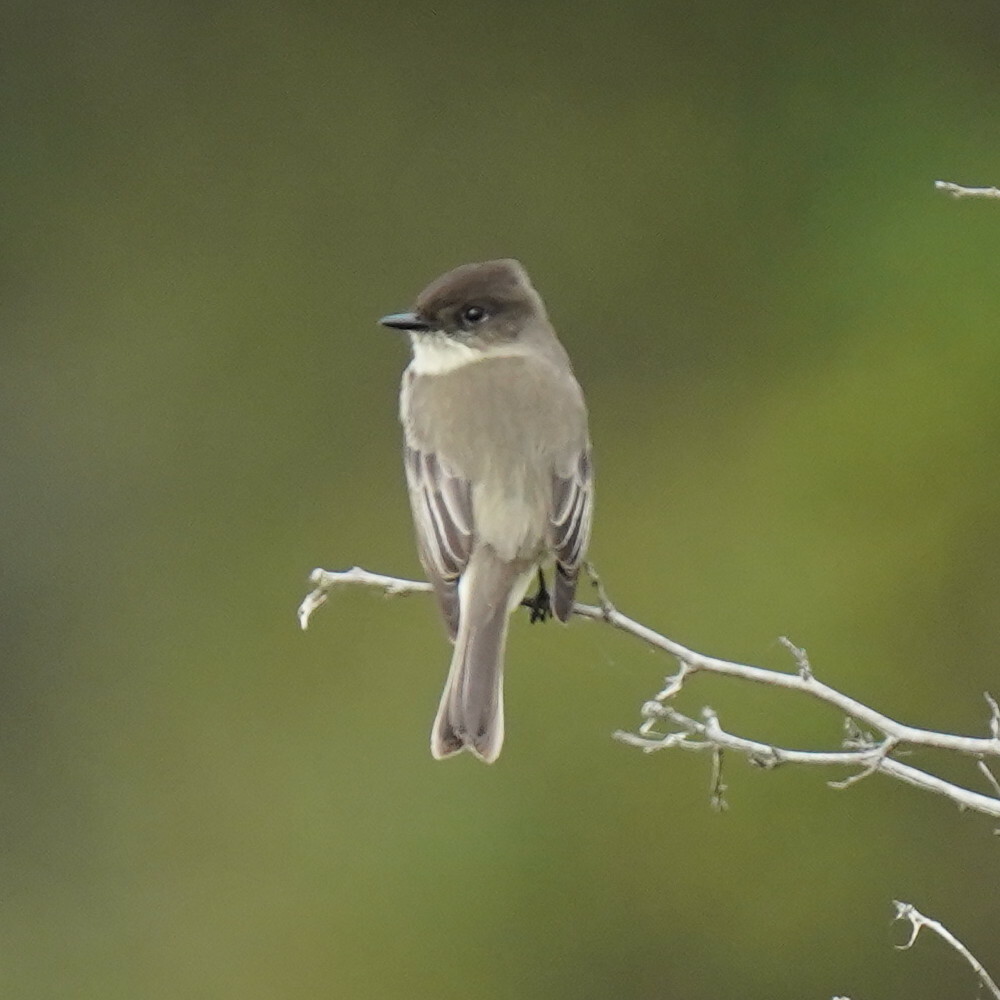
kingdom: Animalia
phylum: Chordata
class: Aves
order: Passeriformes
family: Tyrannidae
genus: Sayornis
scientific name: Sayornis phoebe
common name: Eastern phoebe
